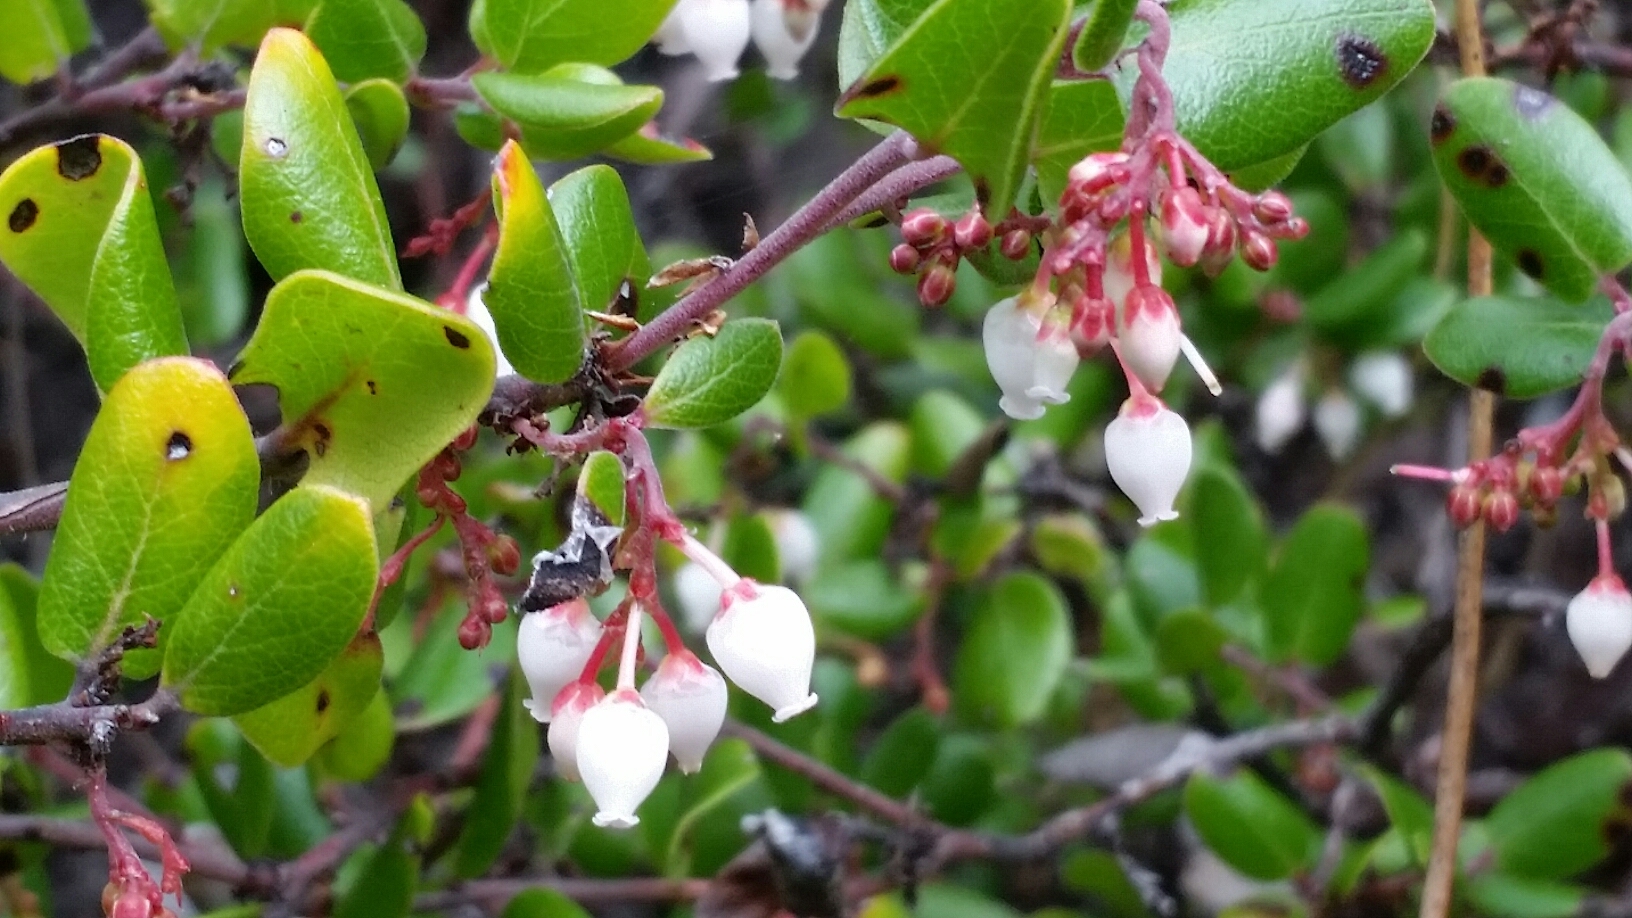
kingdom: Plantae
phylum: Tracheophyta
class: Magnoliopsida
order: Ericales
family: Ericaceae
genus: Arctostaphylos
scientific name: Arctostaphylos nummularia
